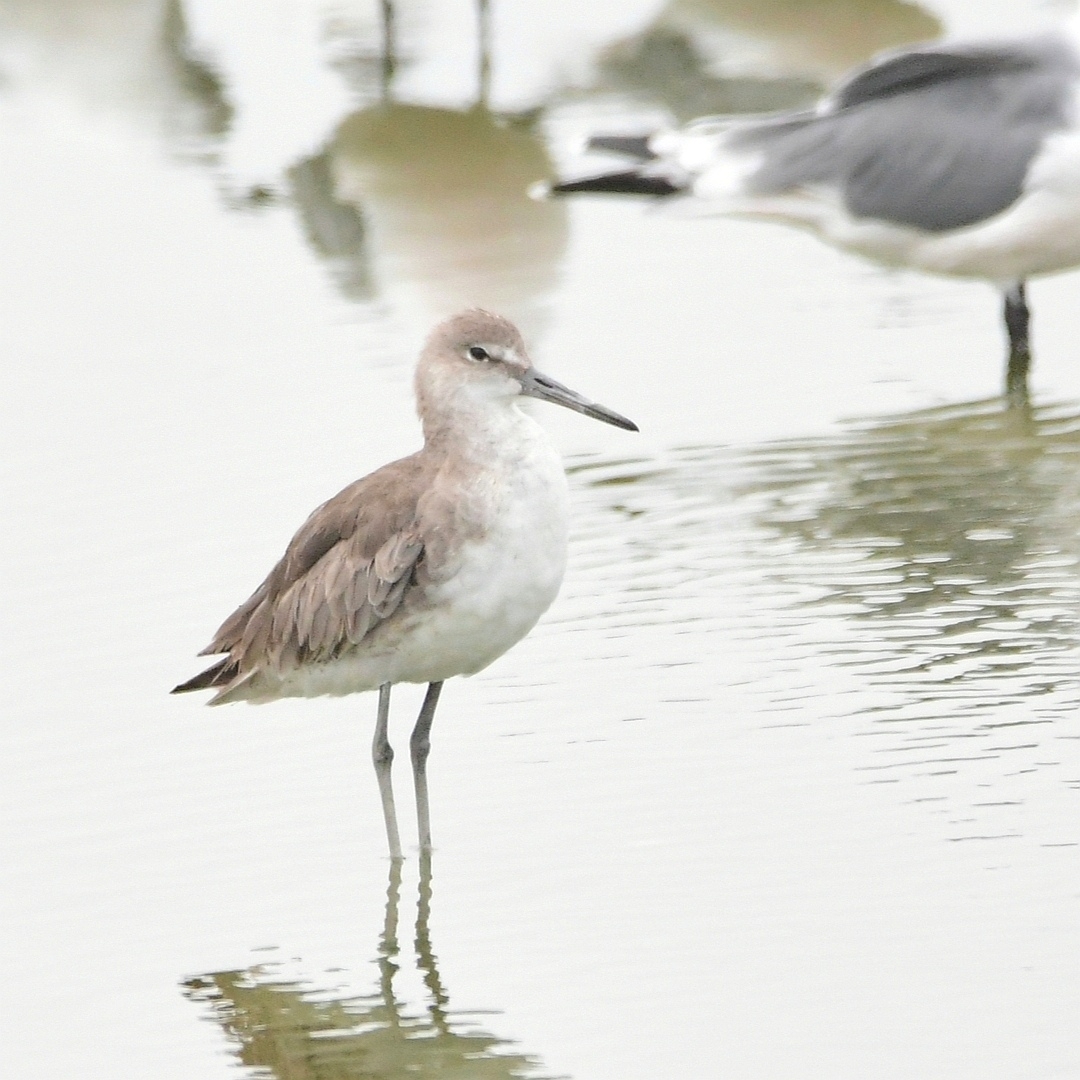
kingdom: Animalia
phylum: Chordata
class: Aves
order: Charadriiformes
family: Scolopacidae
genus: Tringa
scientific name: Tringa semipalmata
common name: Willet
